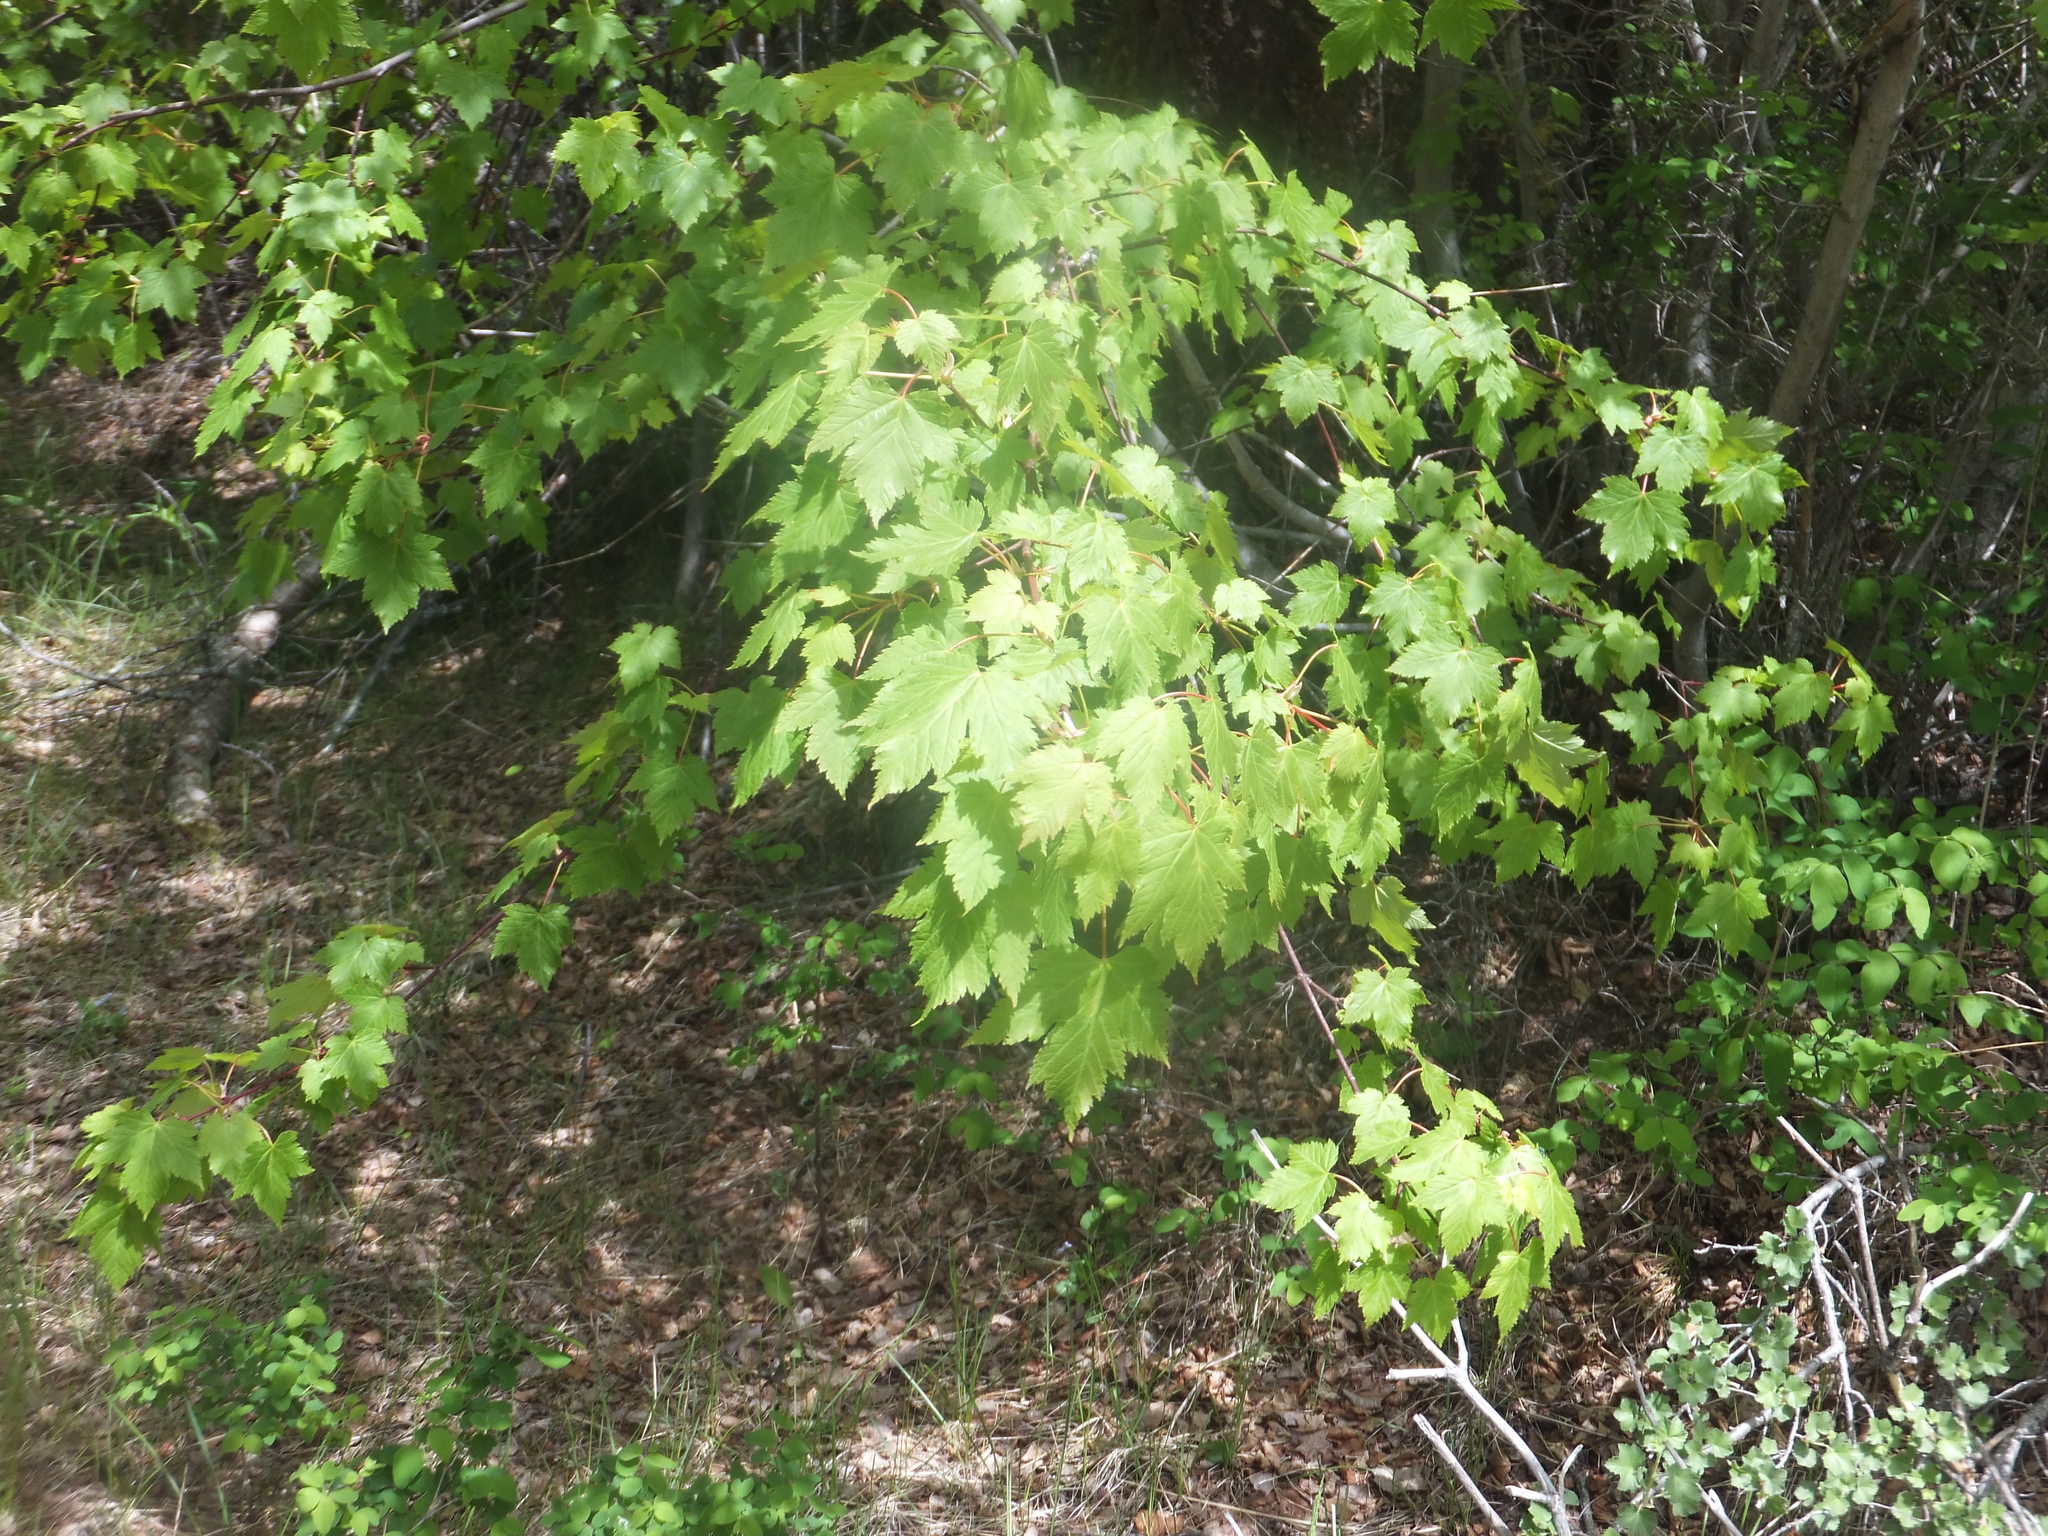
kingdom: Plantae
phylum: Tracheophyta
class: Magnoliopsida
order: Sapindales
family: Sapindaceae
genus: Acer
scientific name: Acer glabrum
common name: Rocky mountain maple
